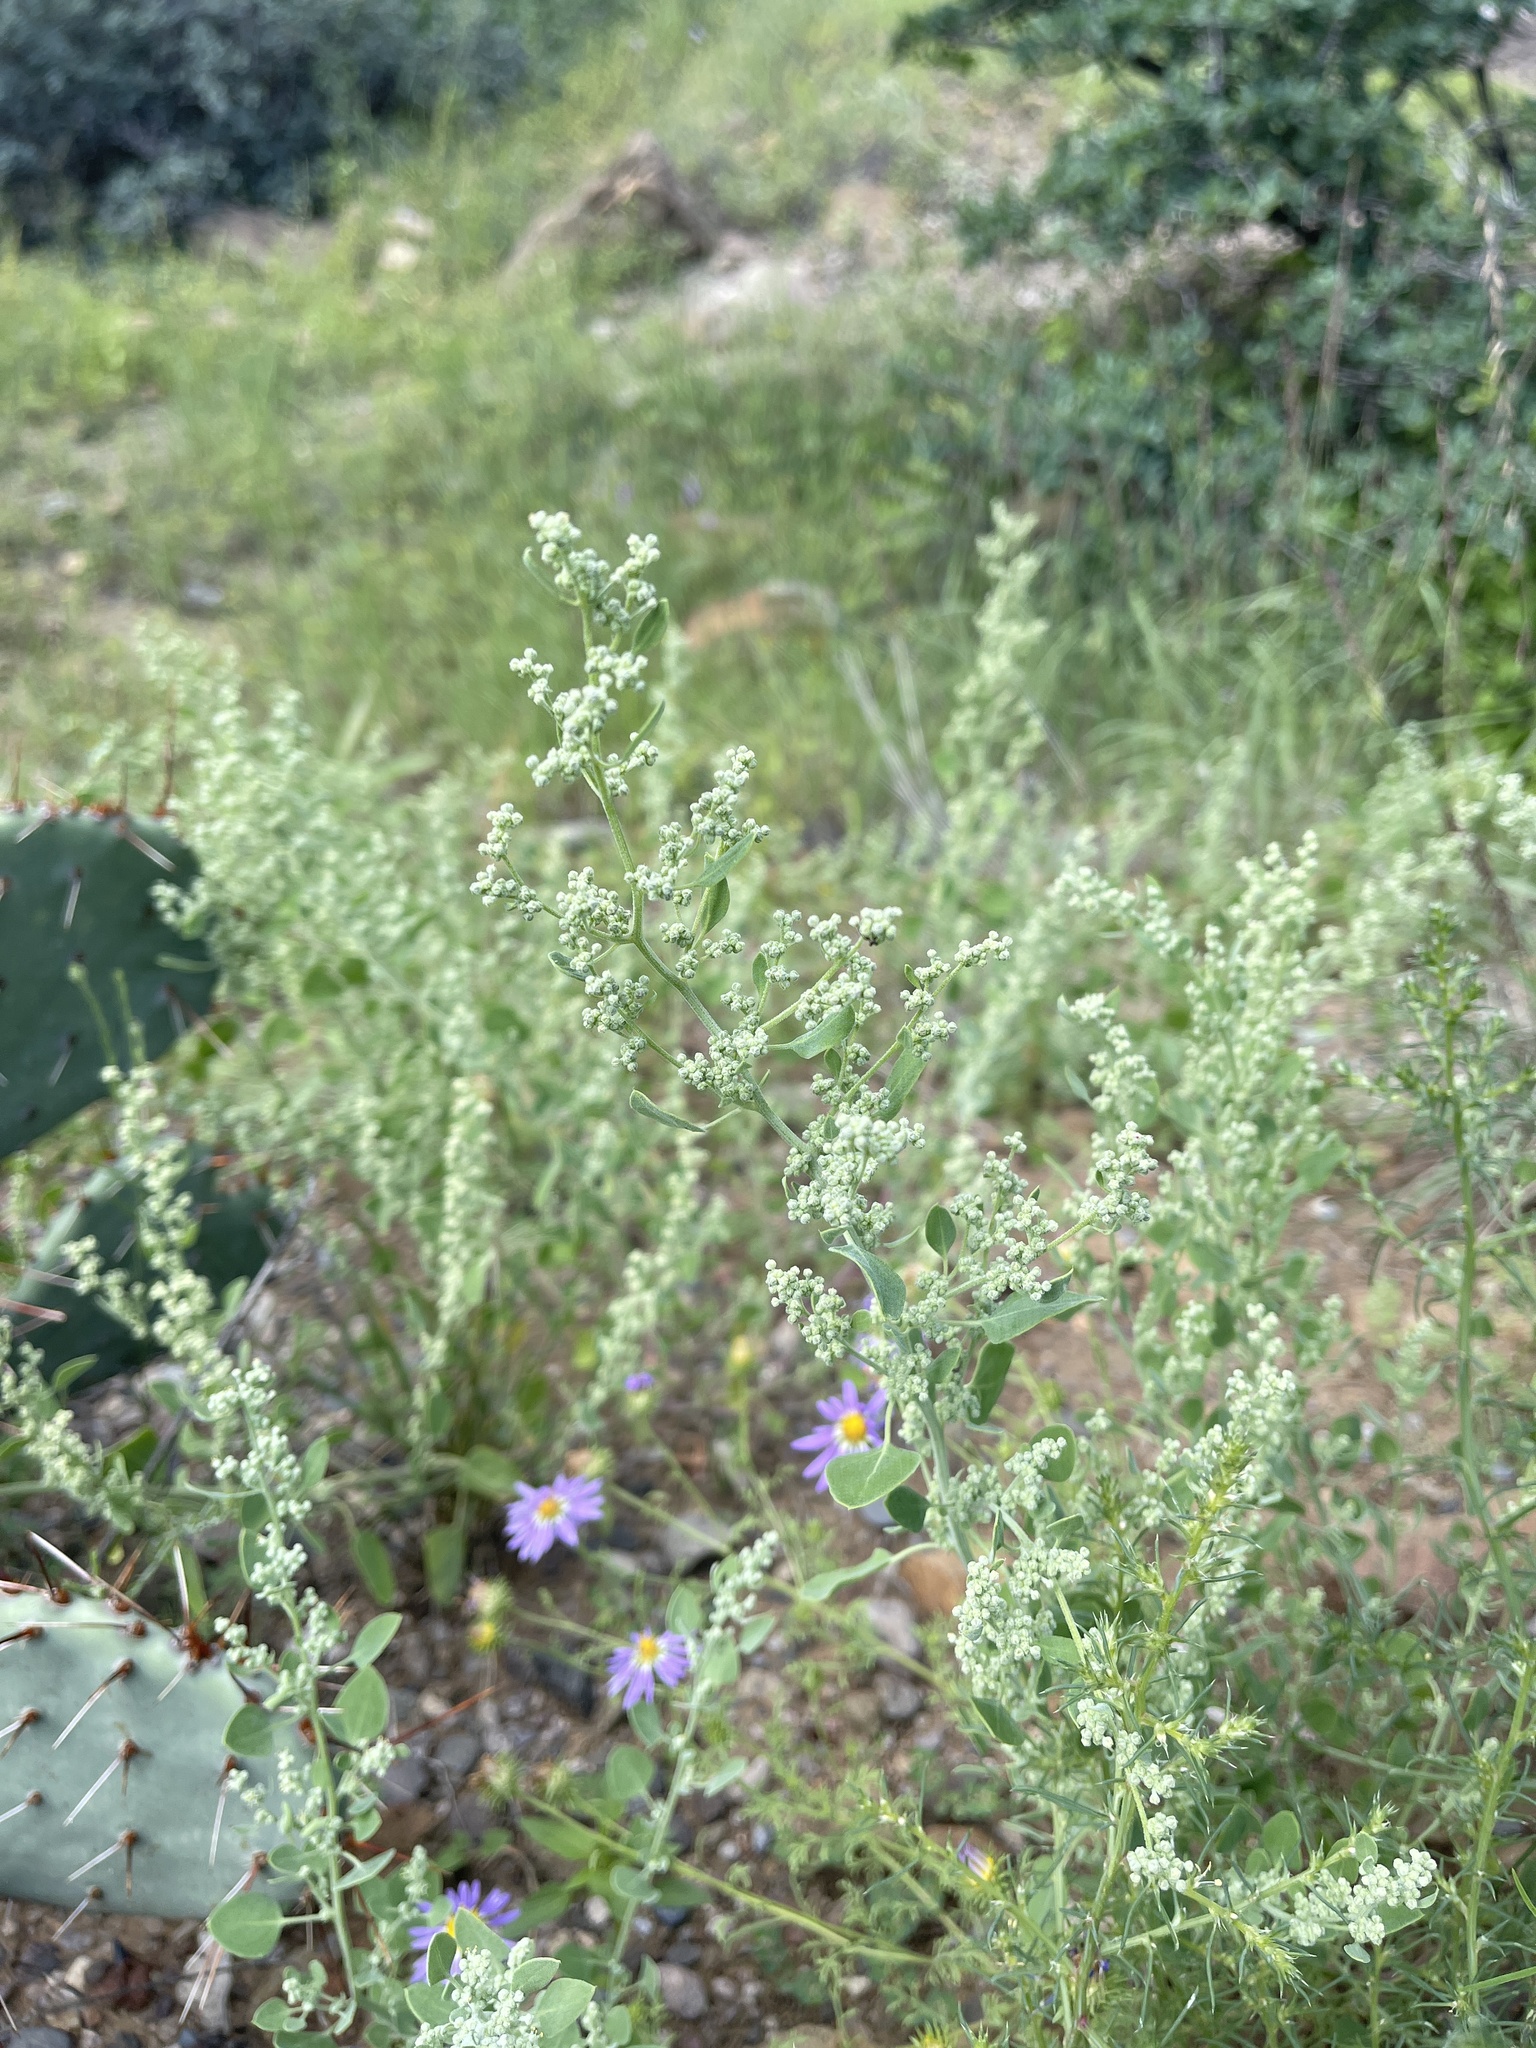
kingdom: Plantae
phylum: Tracheophyta
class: Magnoliopsida
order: Caryophyllales
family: Amaranthaceae
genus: Chenopodium
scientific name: Chenopodium album
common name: Fat-hen
